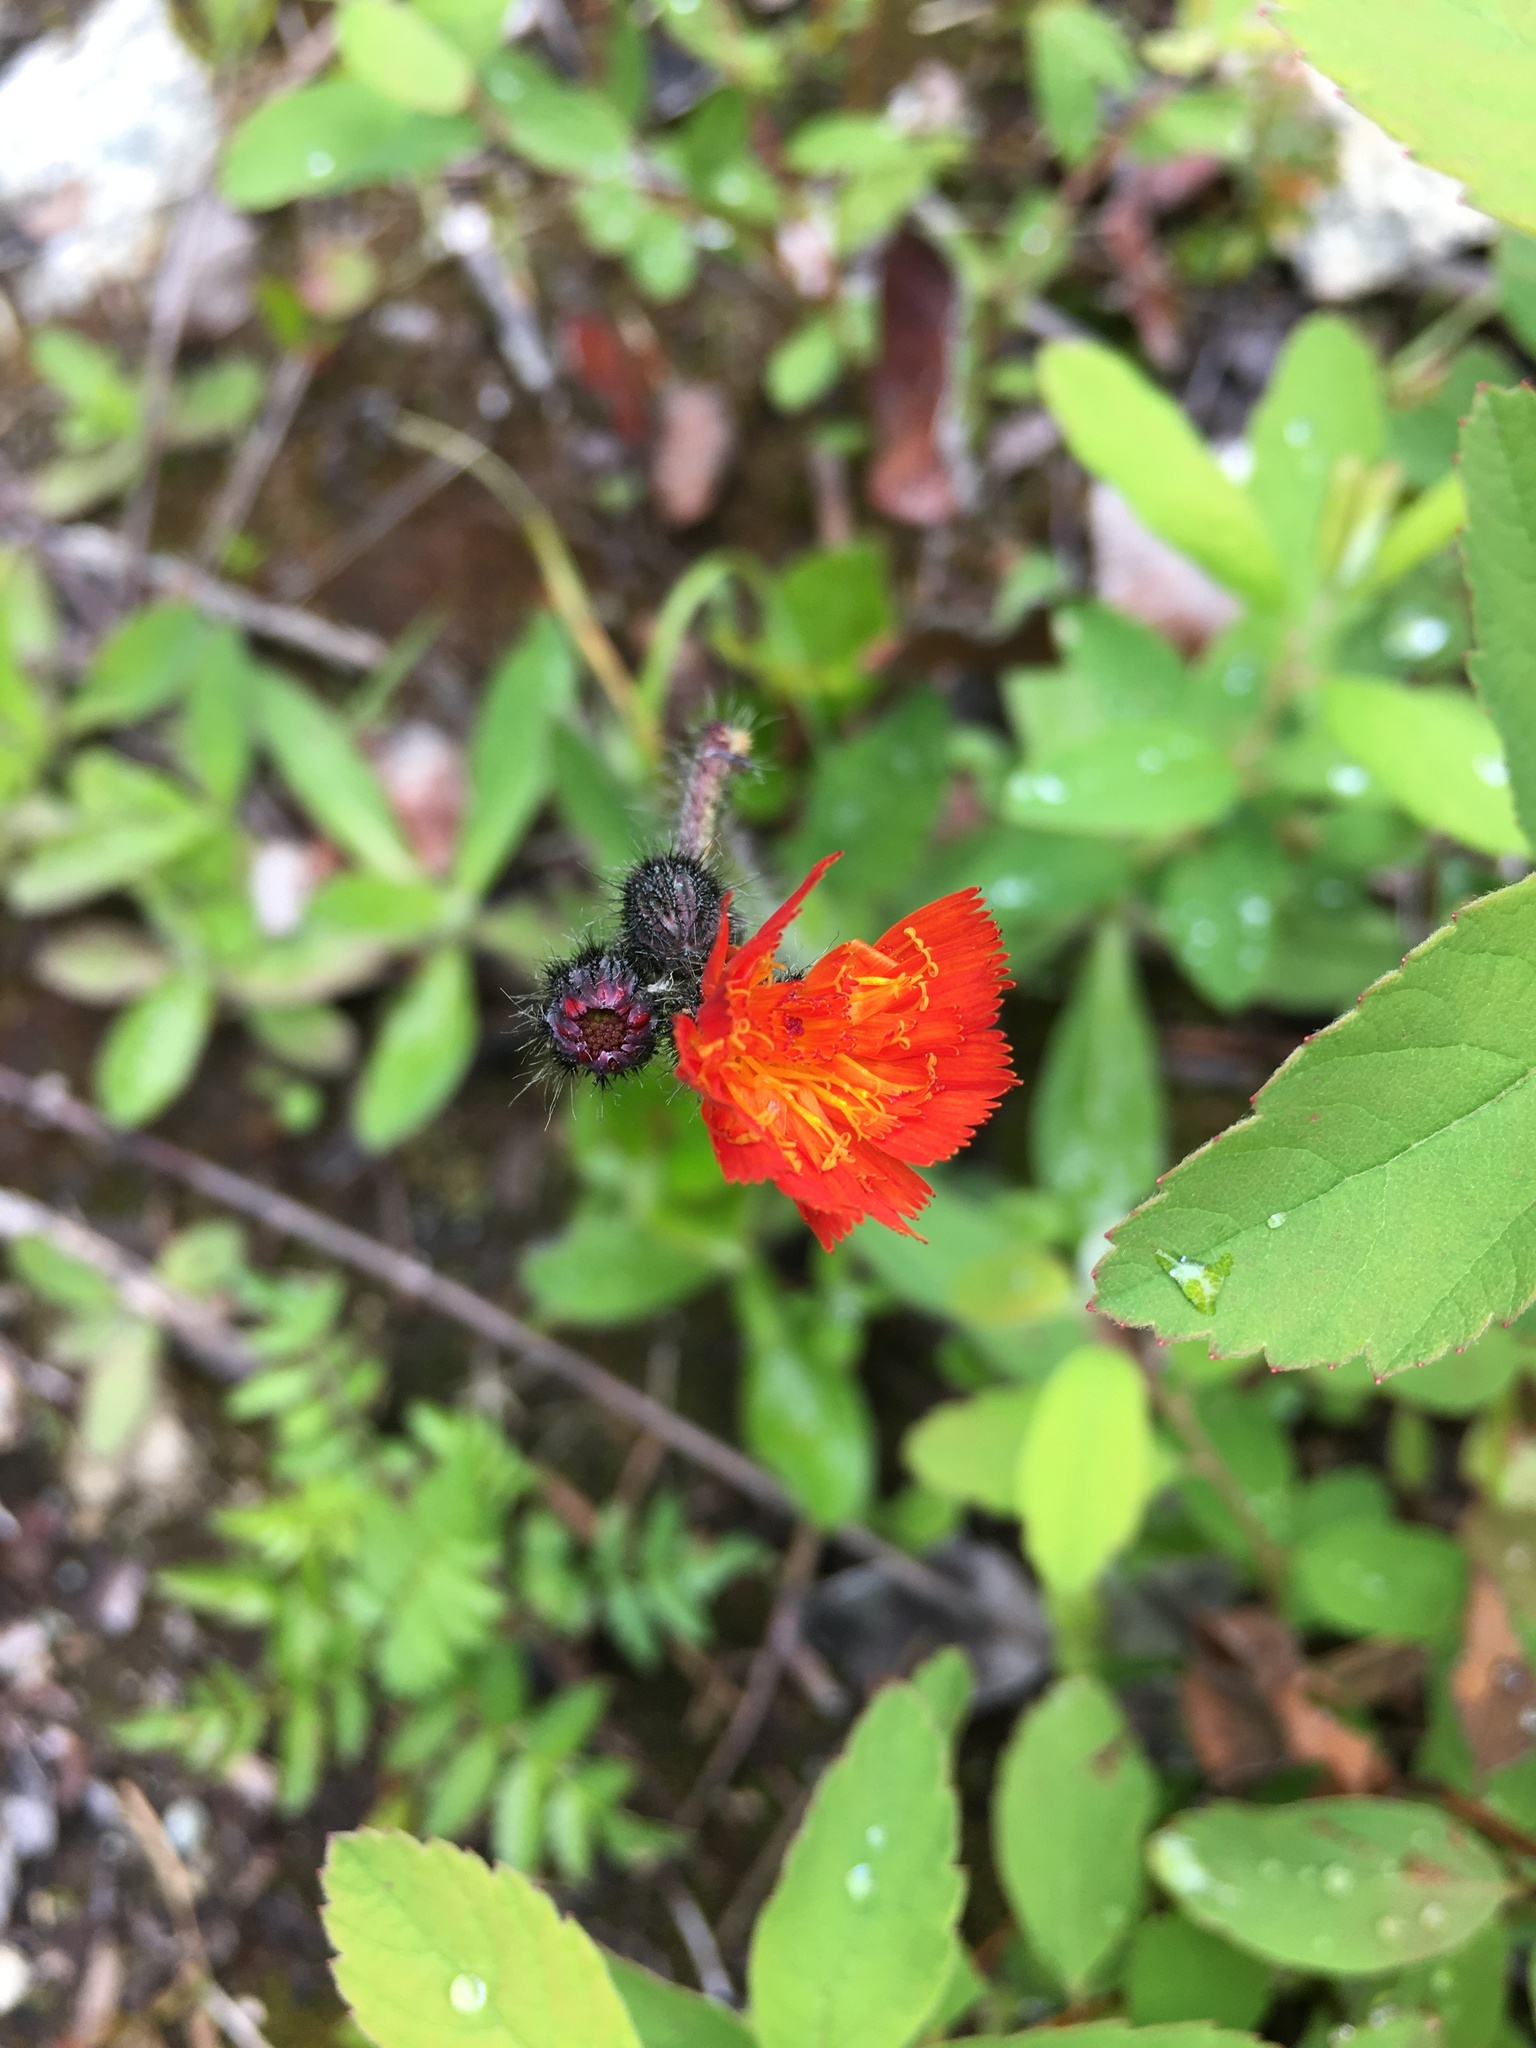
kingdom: Plantae
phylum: Tracheophyta
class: Magnoliopsida
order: Asterales
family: Asteraceae
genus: Pilosella
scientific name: Pilosella aurantiaca
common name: Fox-and-cubs
